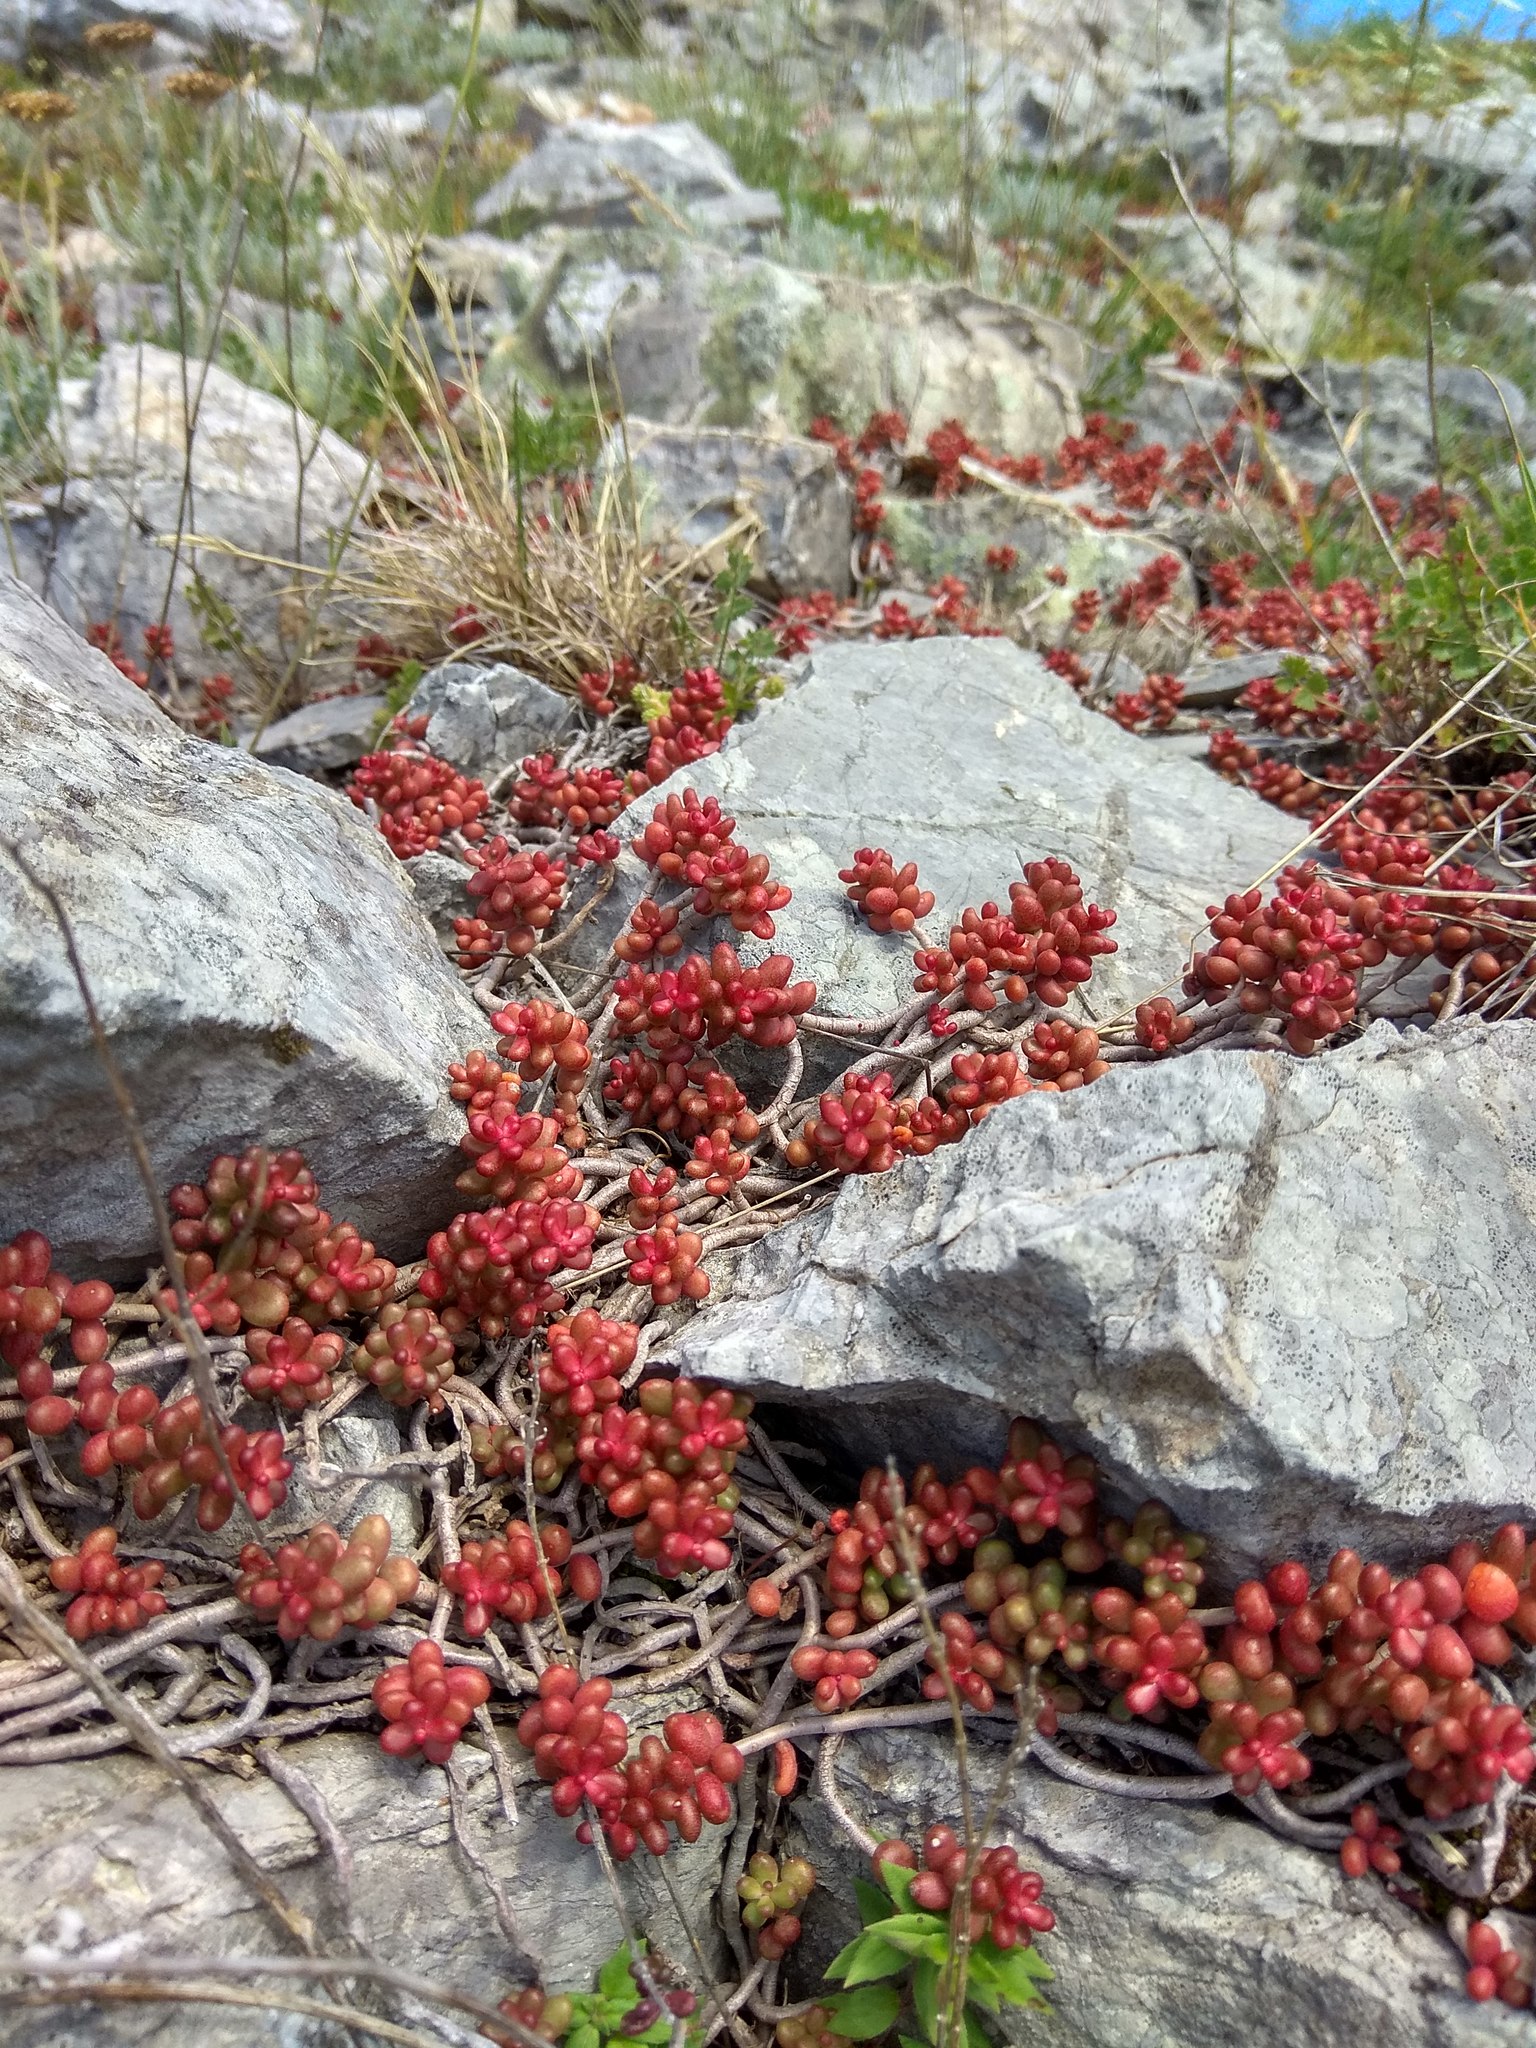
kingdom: Plantae
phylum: Tracheophyta
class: Magnoliopsida
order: Saxifragales
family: Crassulaceae
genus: Sedum
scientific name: Sedum album
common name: White stonecrop
